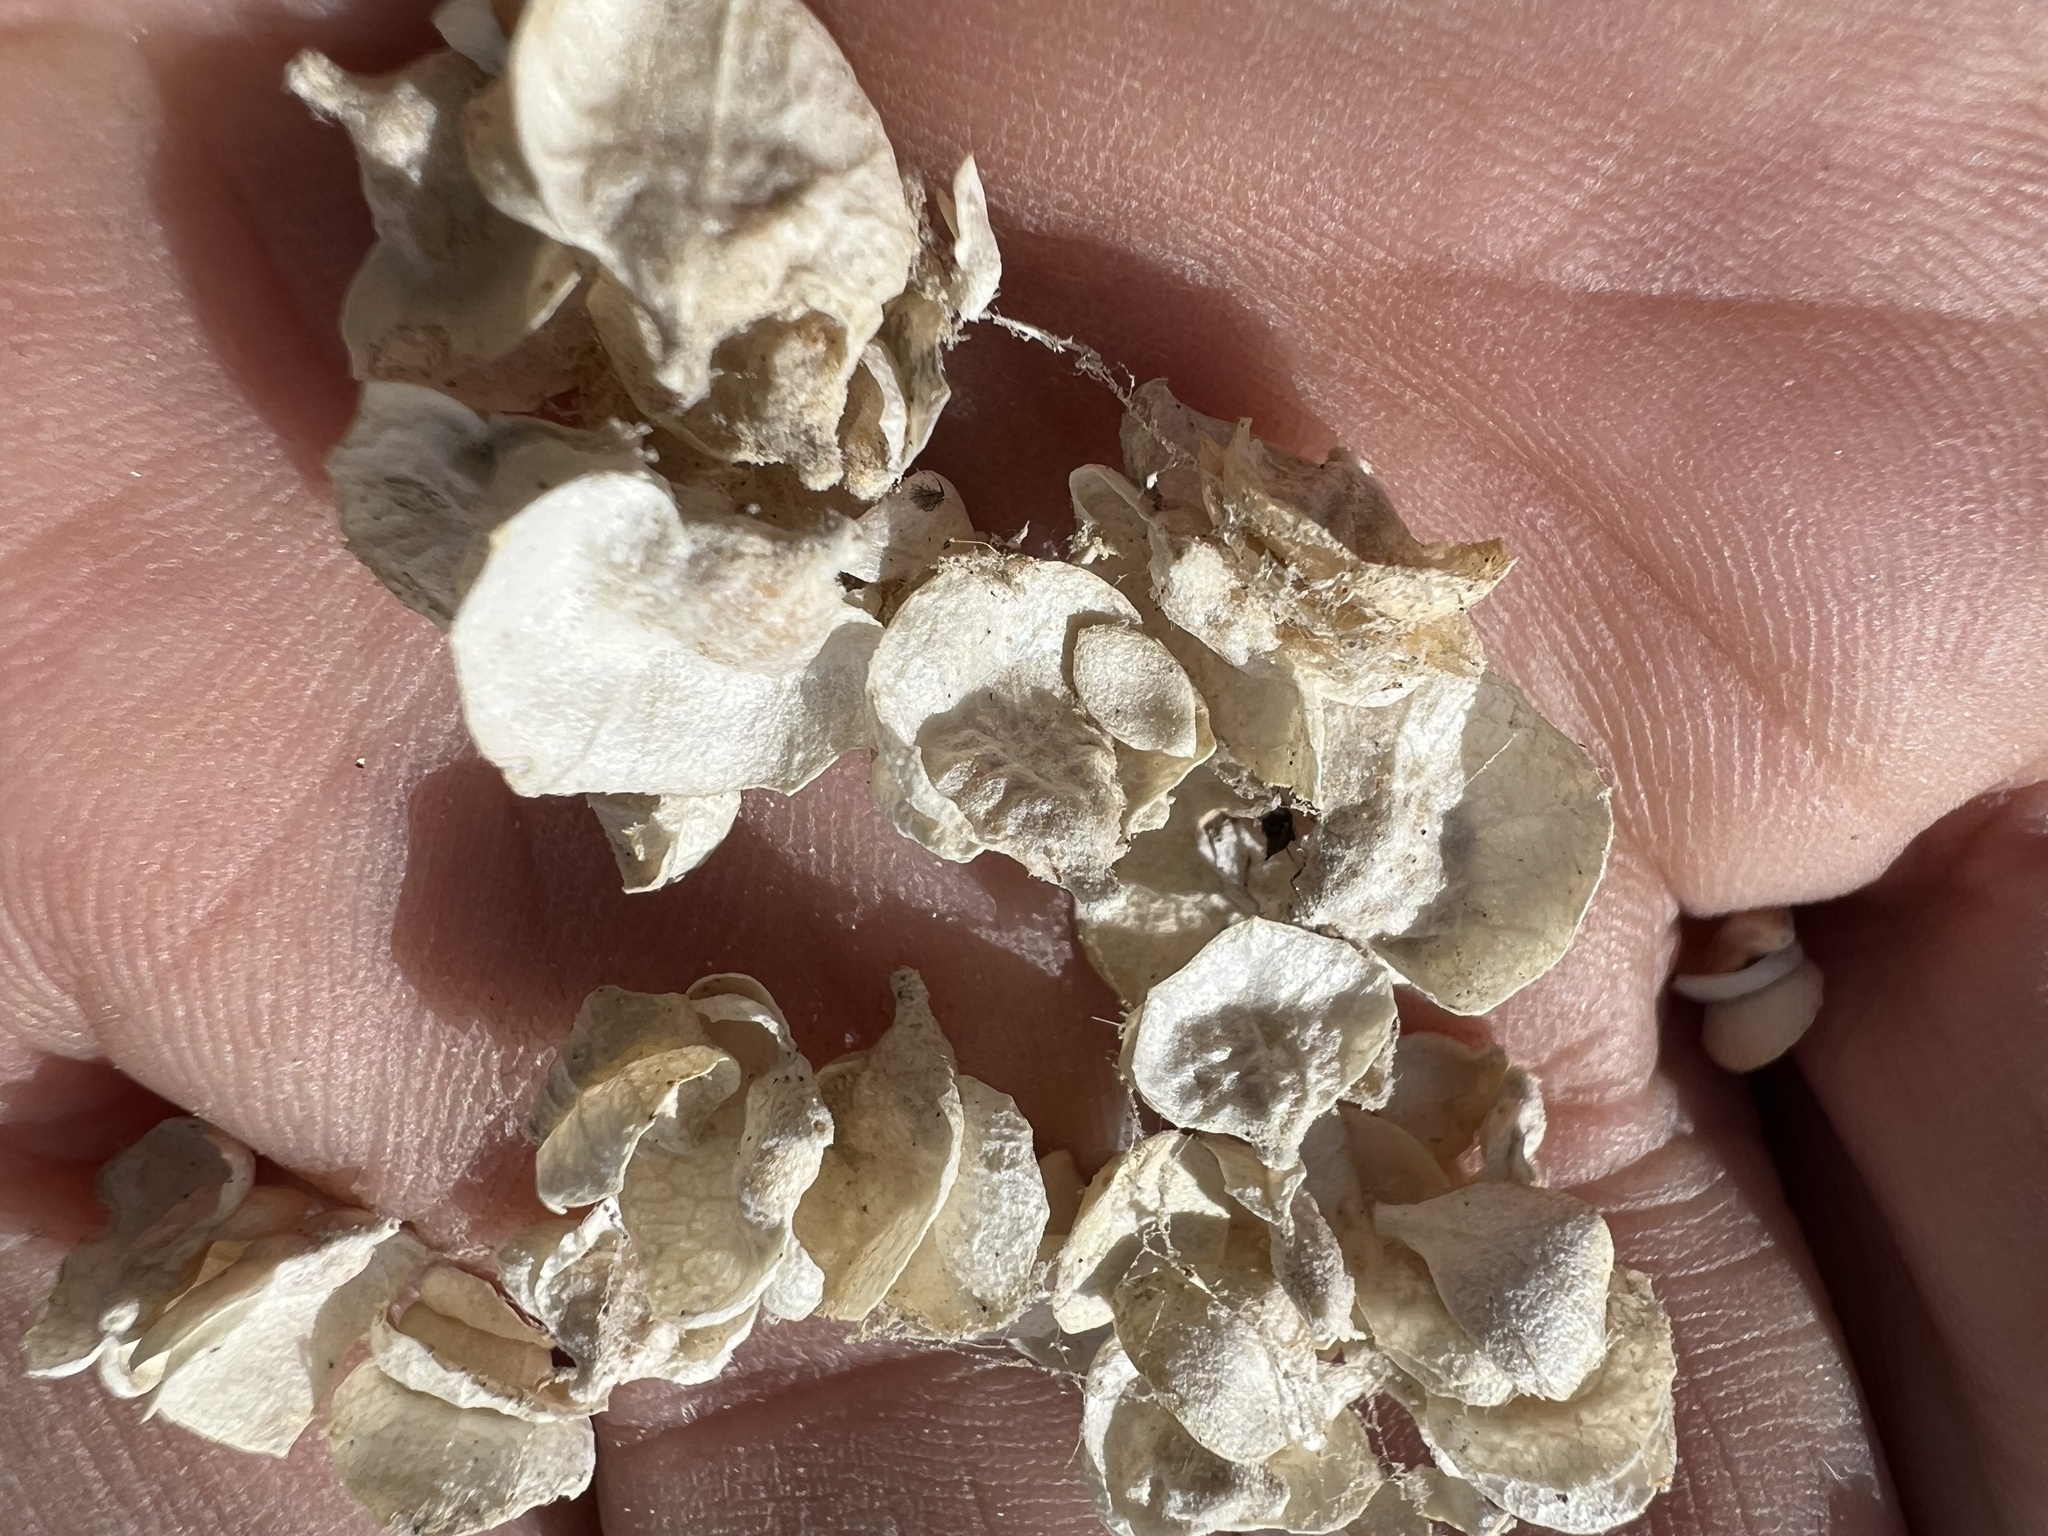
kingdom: Plantae
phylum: Tracheophyta
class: Magnoliopsida
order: Caryophyllales
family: Amaranthaceae
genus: Atriplex
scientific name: Atriplex confertifolia
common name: Shadscale
